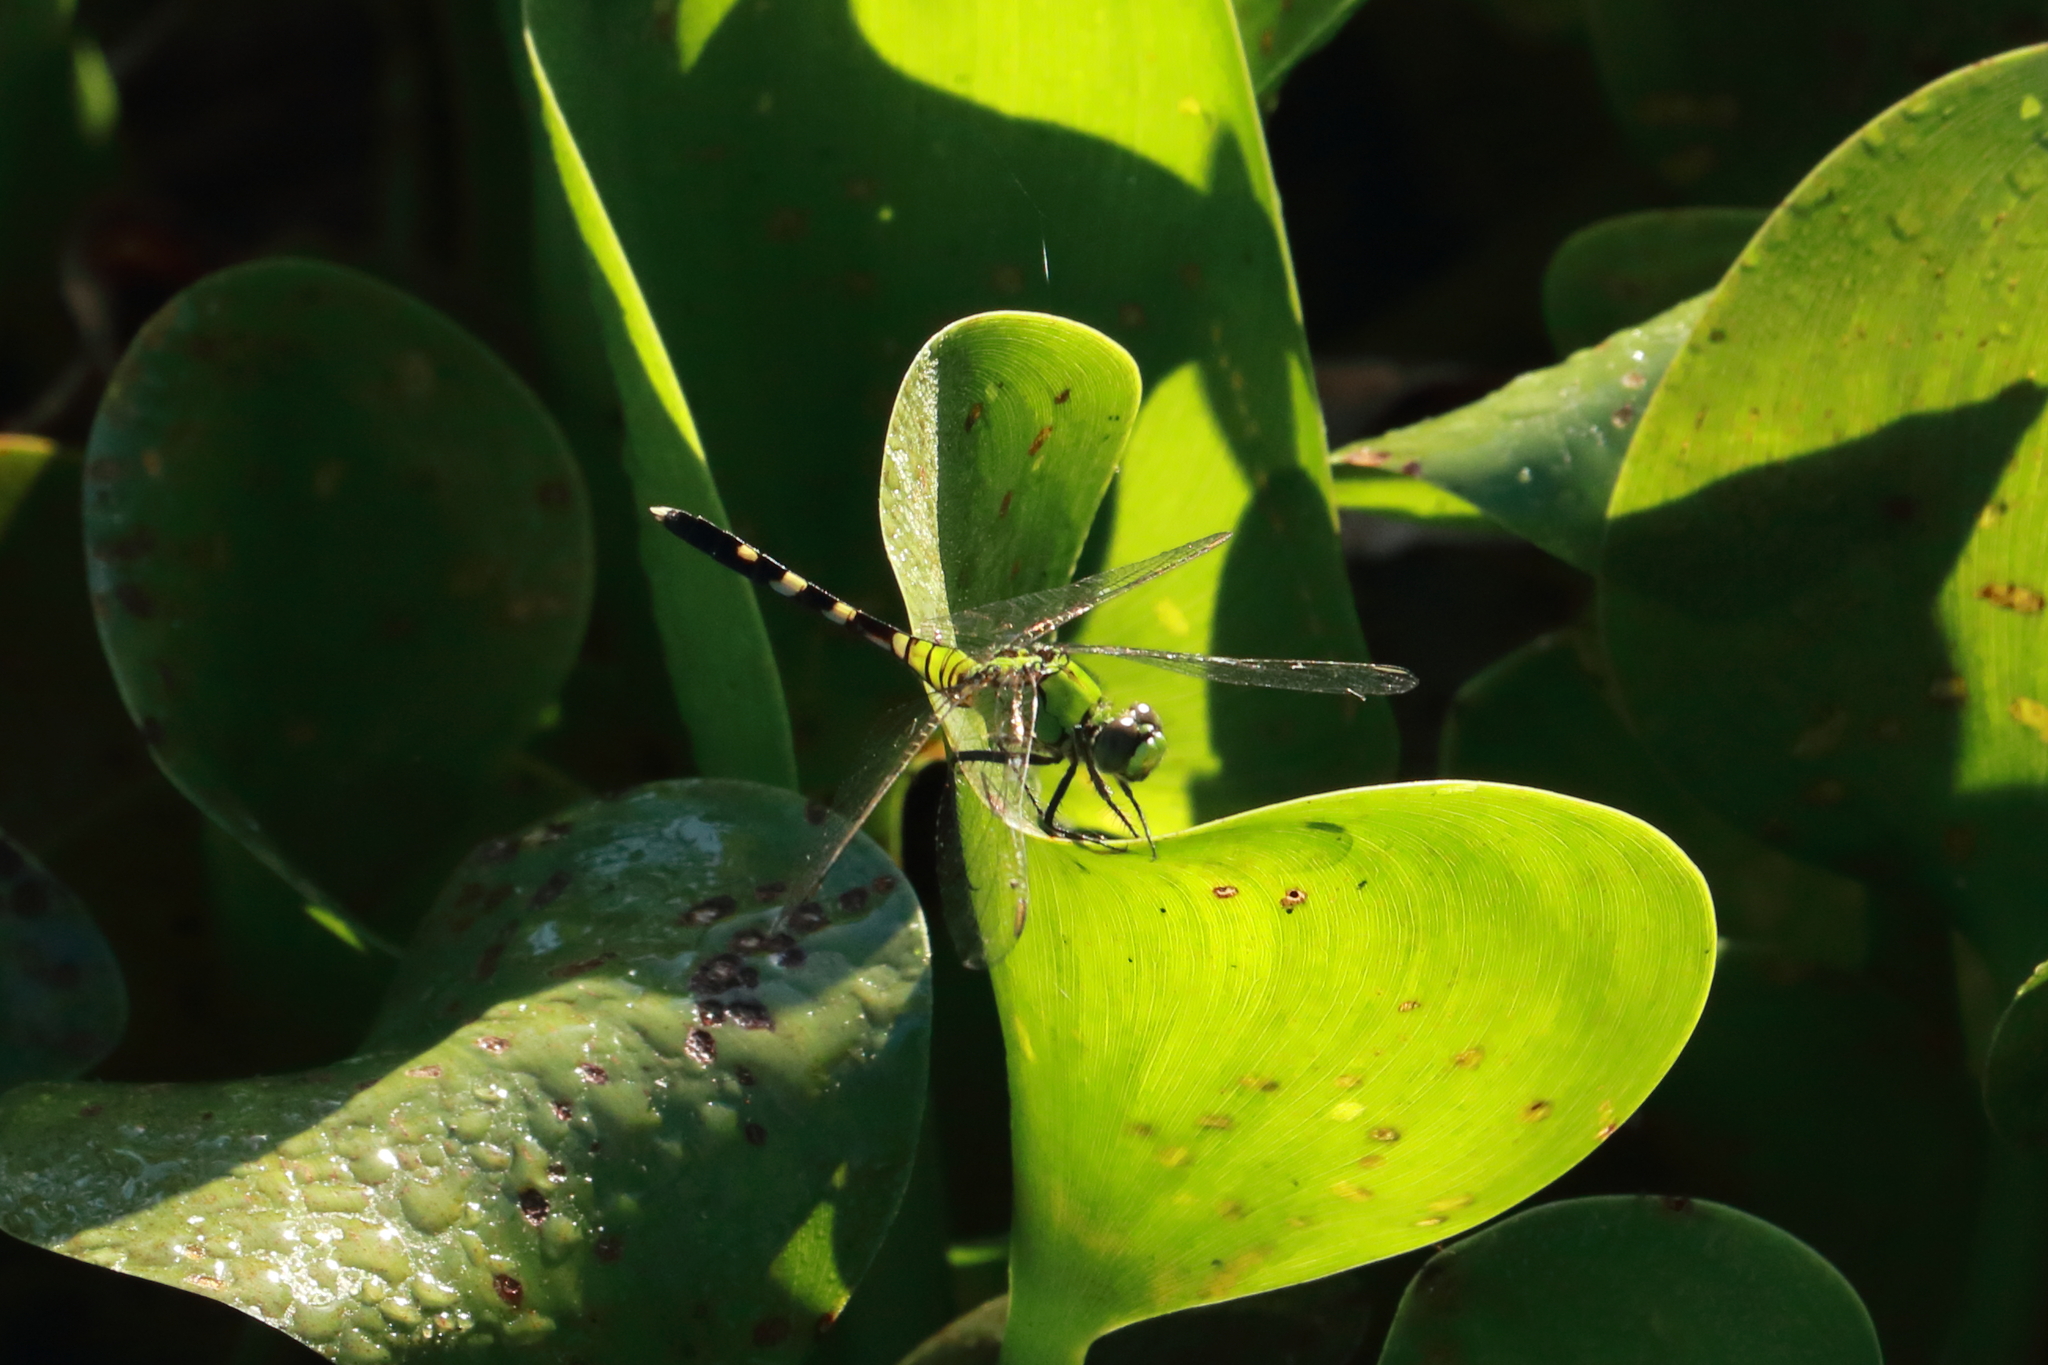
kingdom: Animalia
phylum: Arthropoda
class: Insecta
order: Odonata
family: Libellulidae
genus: Erythemis
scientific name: Erythemis simplicicollis
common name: Eastern pondhawk
